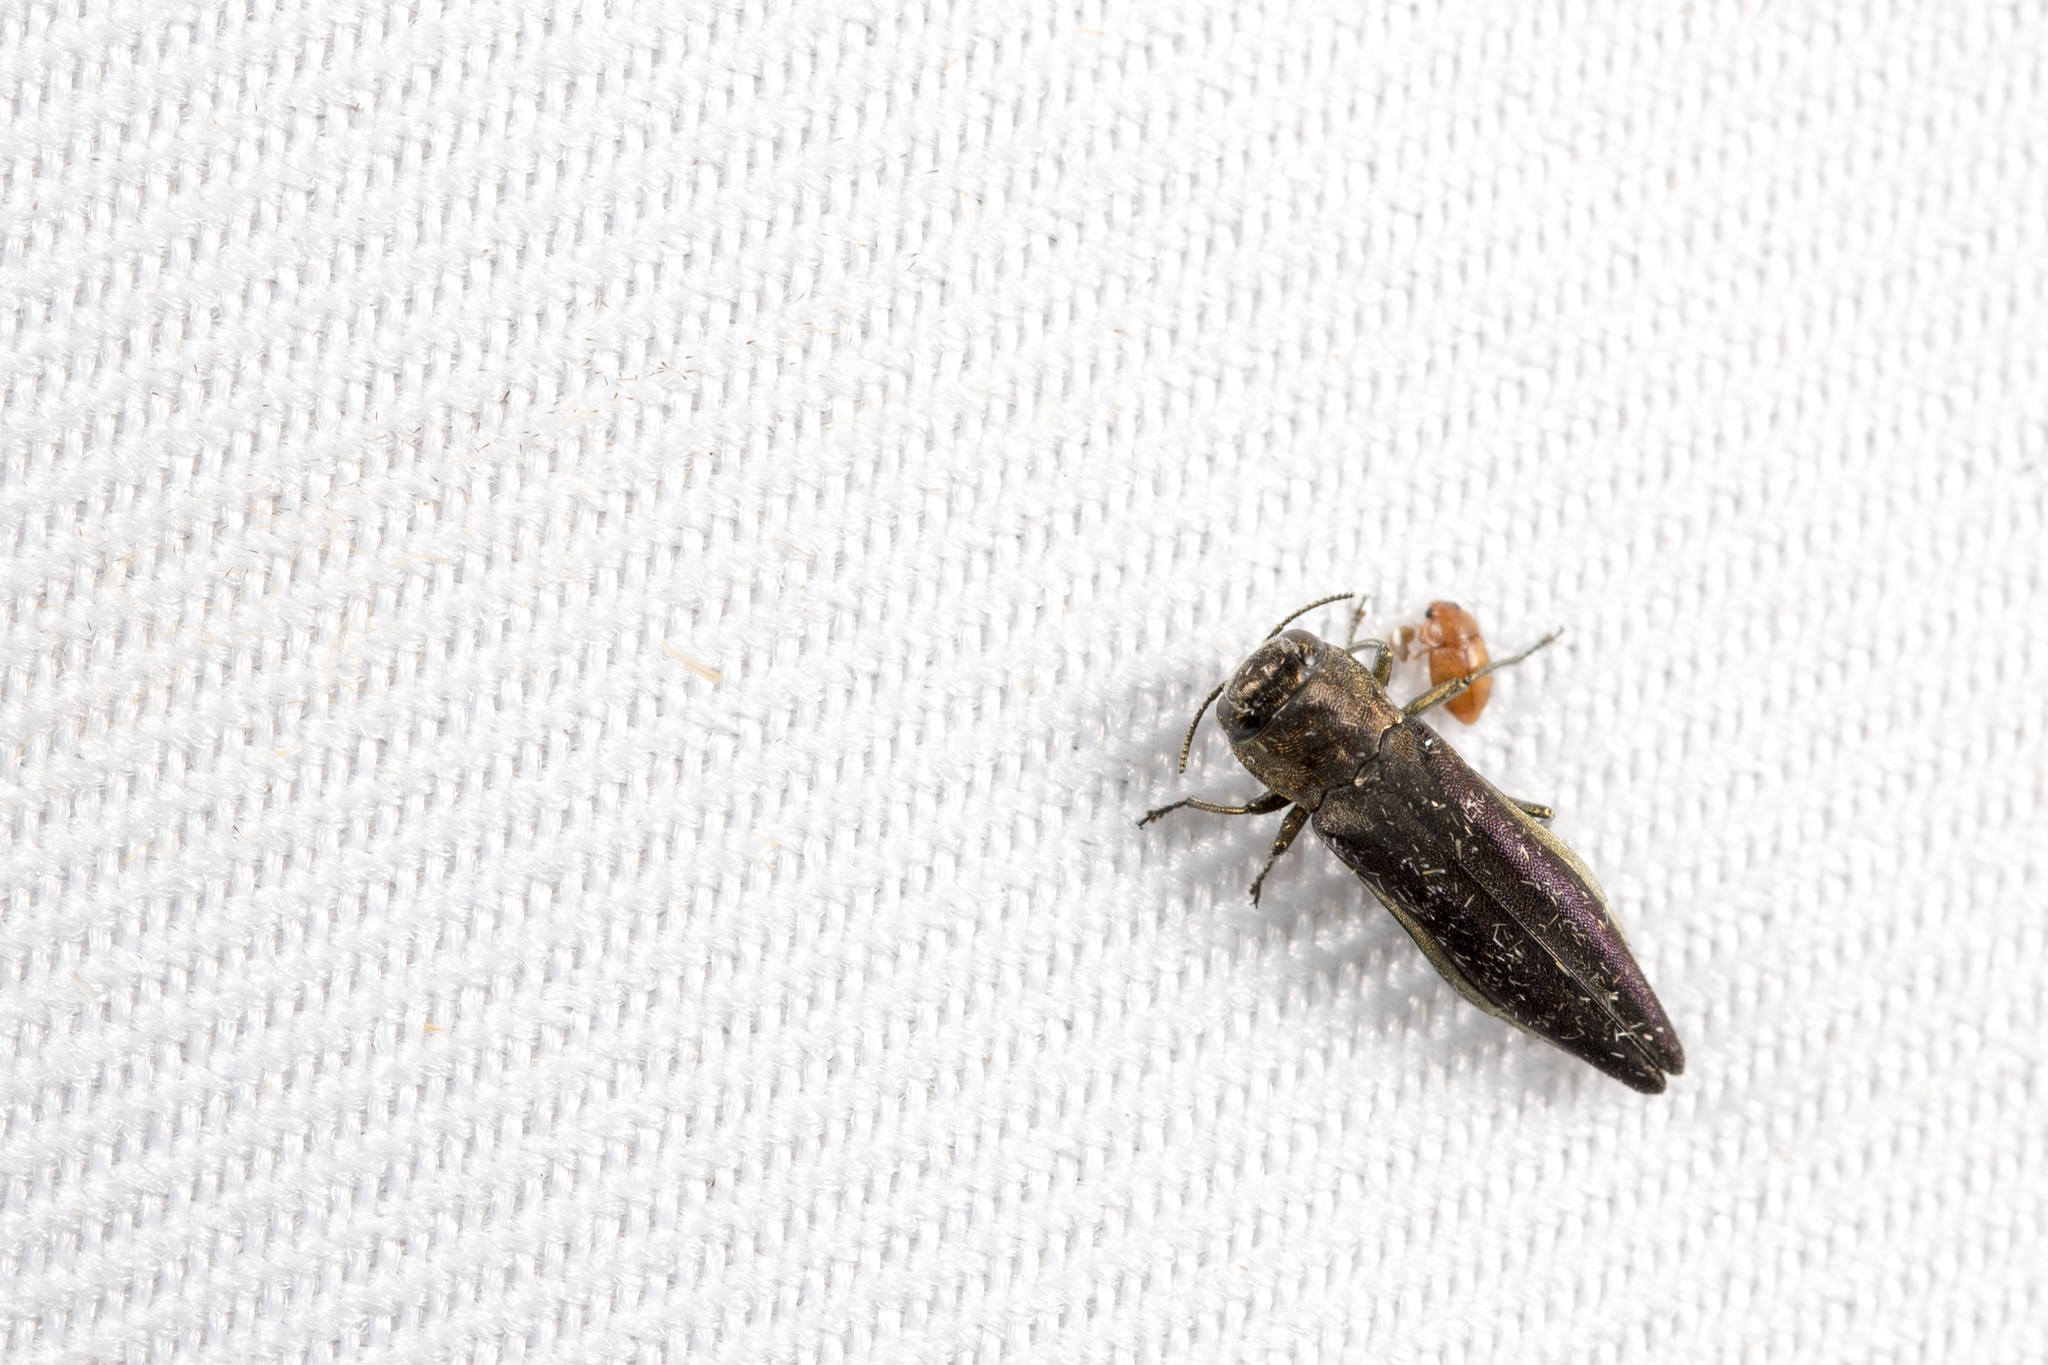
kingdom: Animalia
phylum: Arthropoda
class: Insecta
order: Coleoptera
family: Buprestidae
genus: Agrilus
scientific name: Agrilus niisatoi
